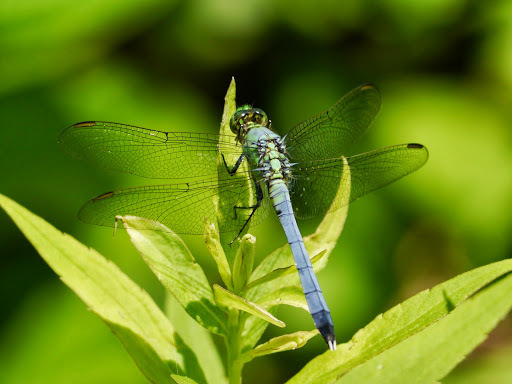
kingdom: Animalia
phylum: Arthropoda
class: Insecta
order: Odonata
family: Libellulidae
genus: Erythemis
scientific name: Erythemis simplicicollis
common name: Eastern pondhawk
